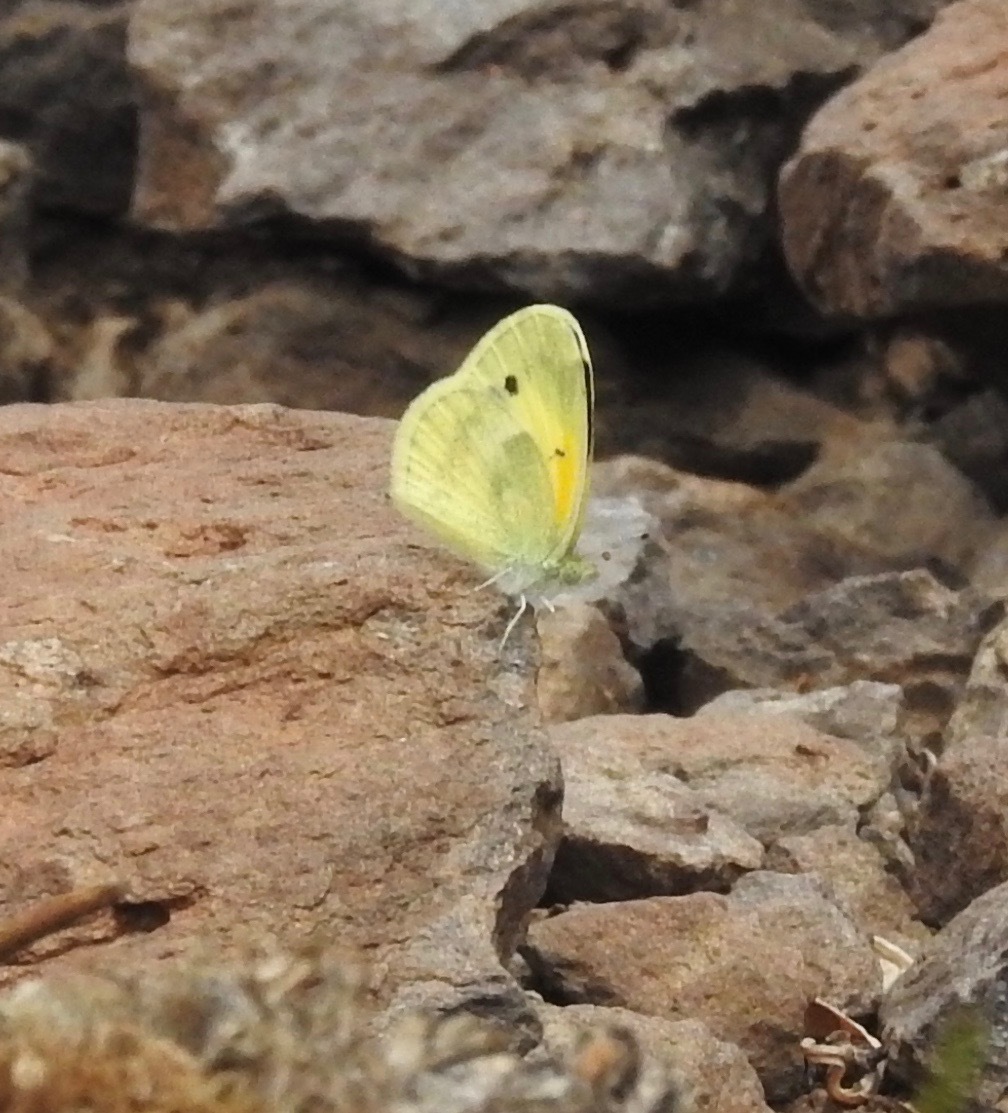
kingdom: Animalia
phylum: Arthropoda
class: Insecta
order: Lepidoptera
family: Pieridae
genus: Nathalis
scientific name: Nathalis iole
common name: Dainty sulphur
